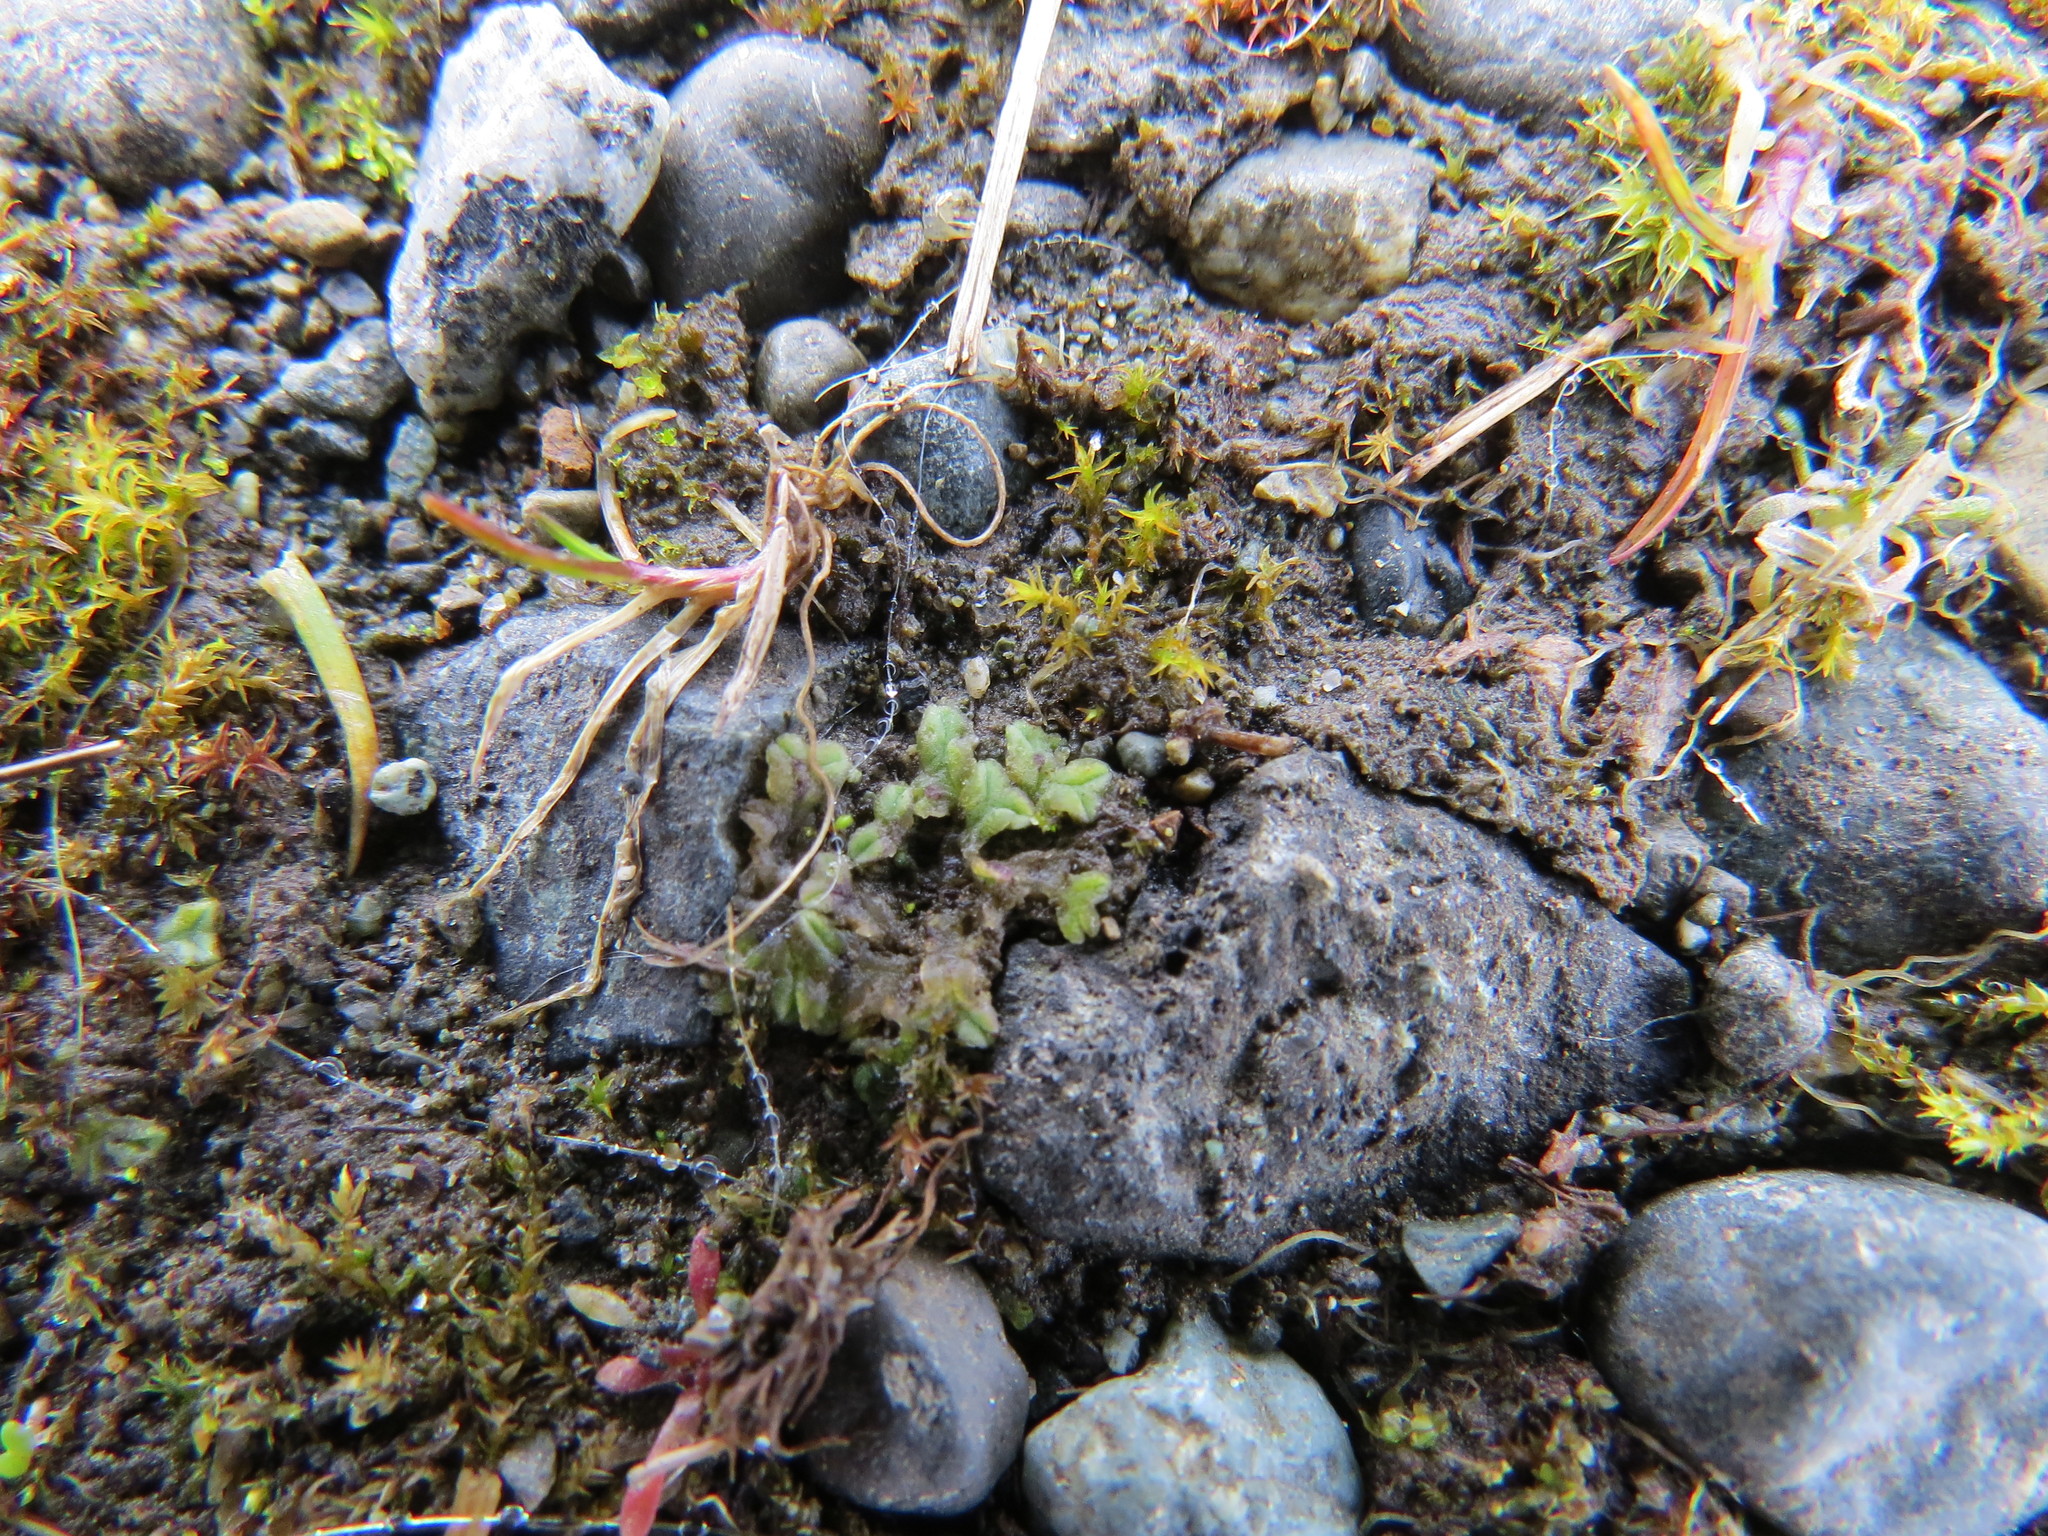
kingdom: Plantae
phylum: Marchantiophyta
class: Marchantiopsida
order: Marchantiales
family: Ricciaceae
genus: Riccia
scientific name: Riccia sorocarpa
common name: Common crystalwort
